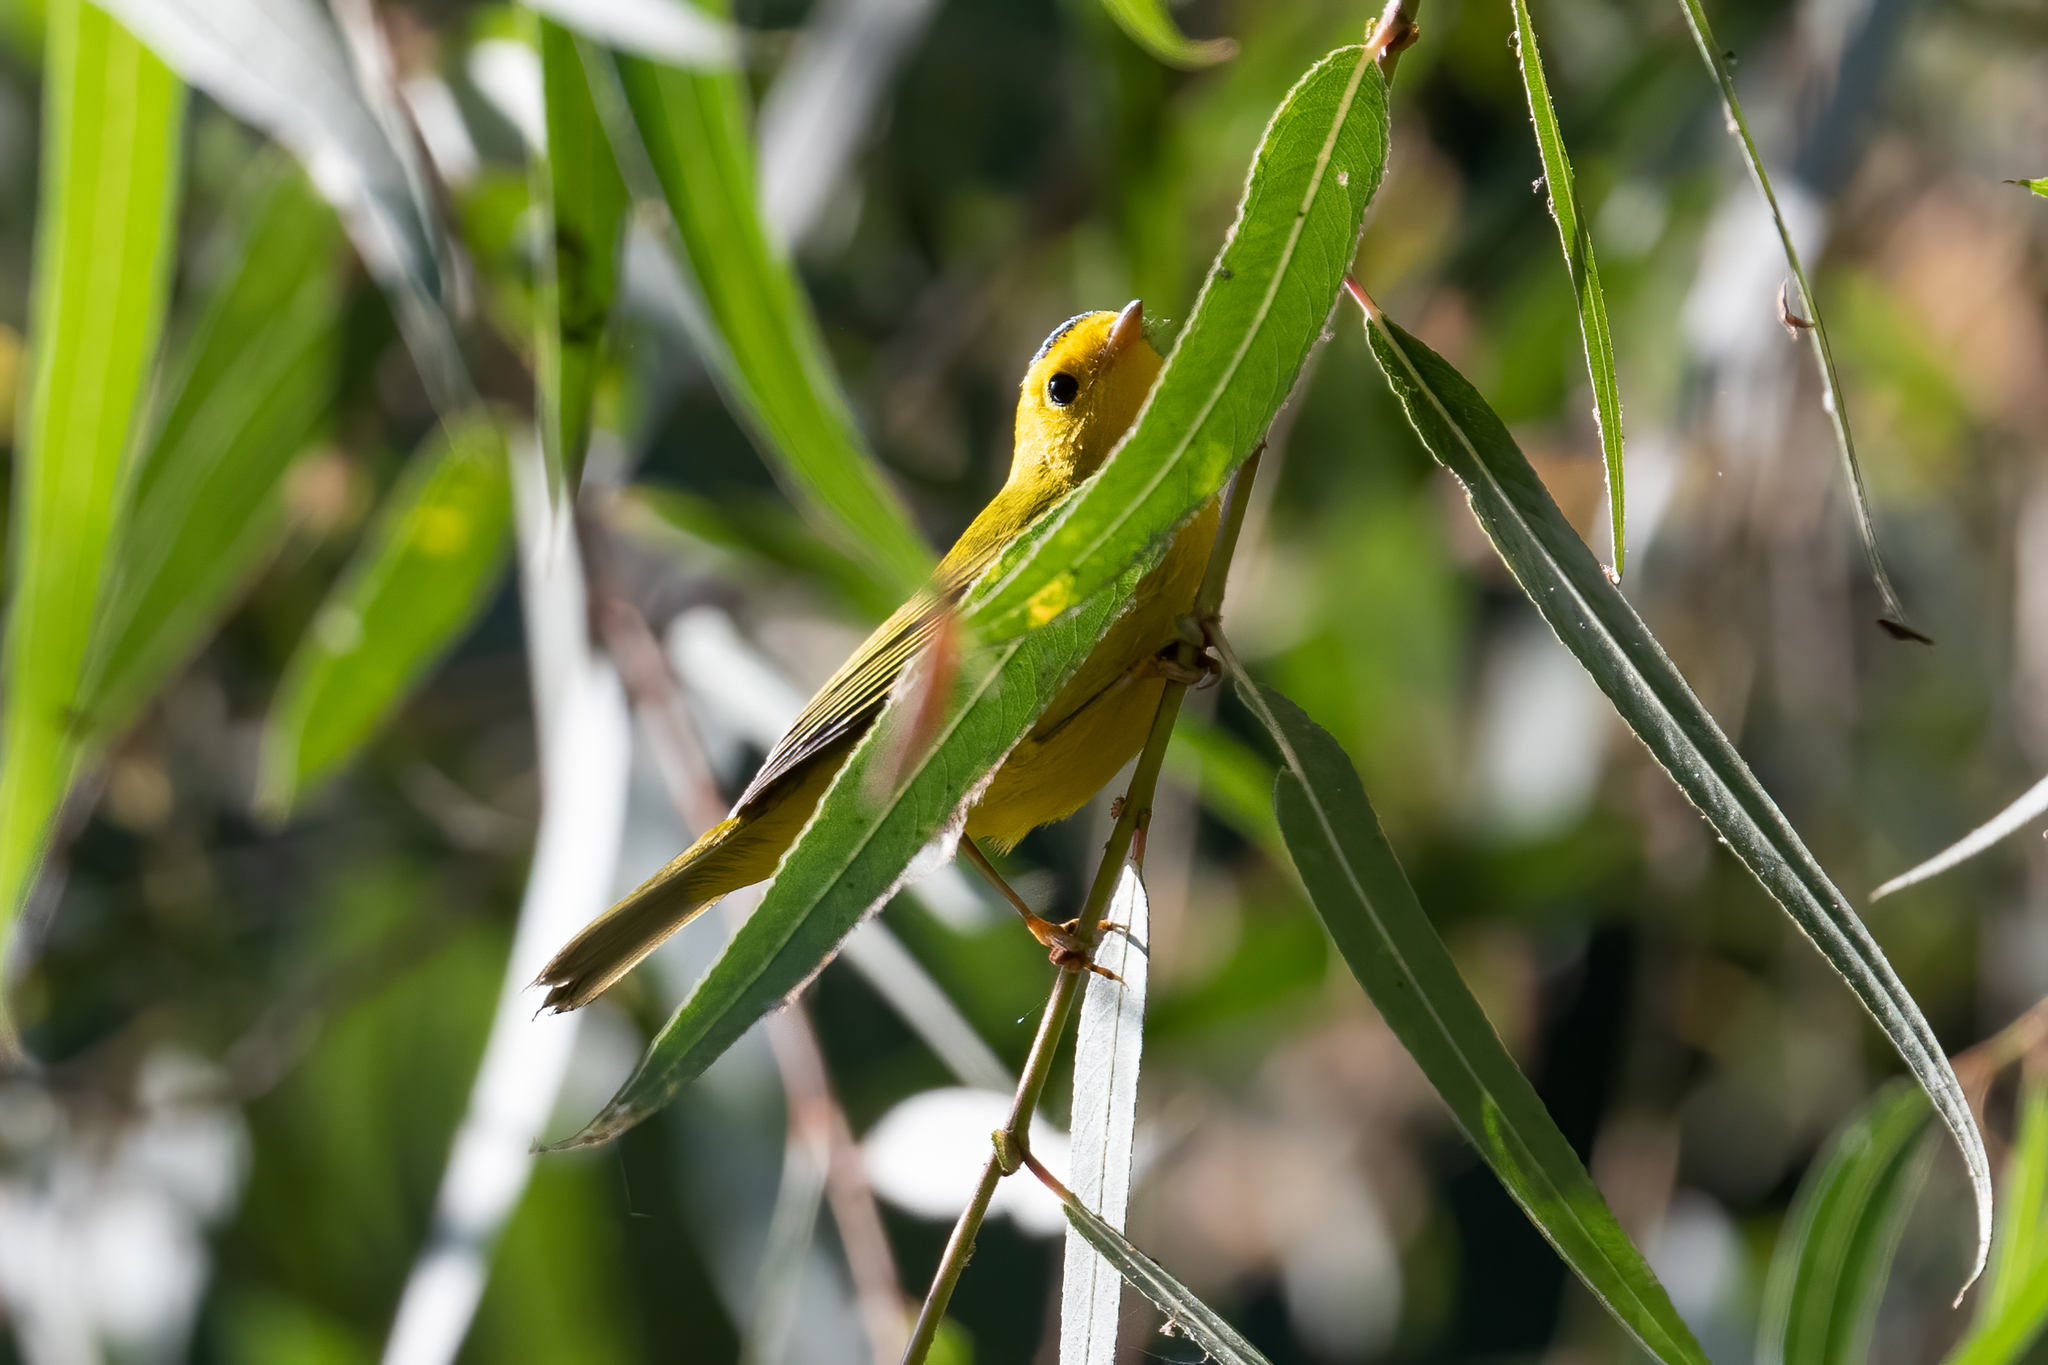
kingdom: Animalia
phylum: Chordata
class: Aves
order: Passeriformes
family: Parulidae
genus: Cardellina
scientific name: Cardellina pusilla
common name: Wilson's warbler
